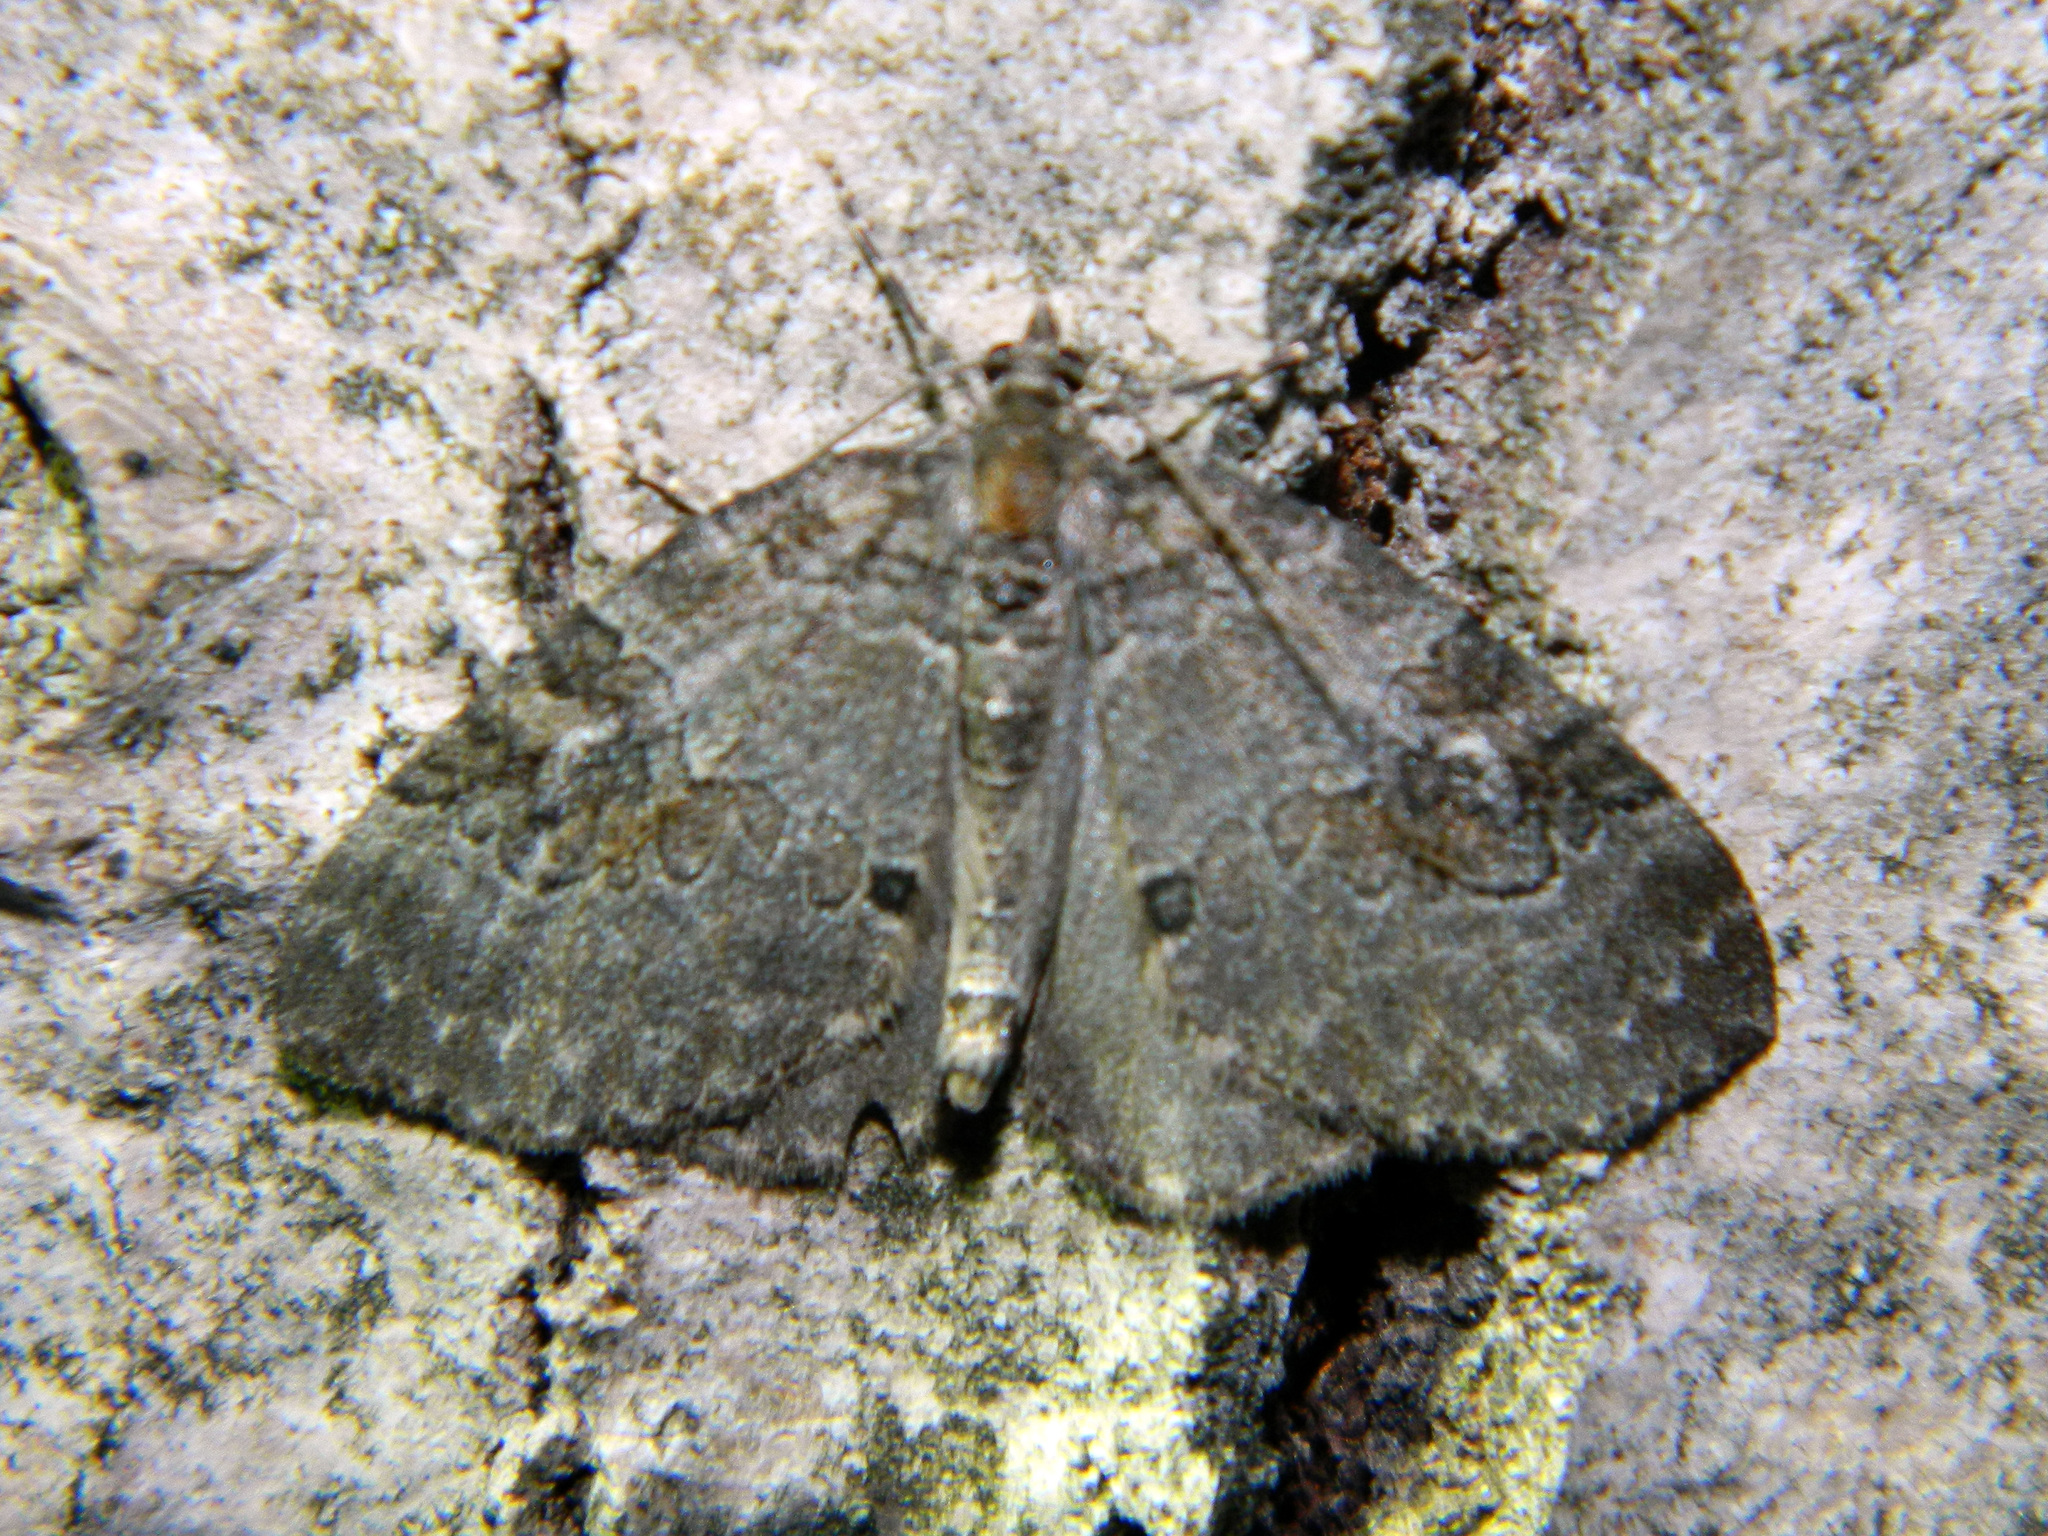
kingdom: Animalia
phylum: Arthropoda
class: Insecta
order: Lepidoptera
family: Geometridae
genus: Plemyria
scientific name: Plemyria georgii
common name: George's carpet moth
